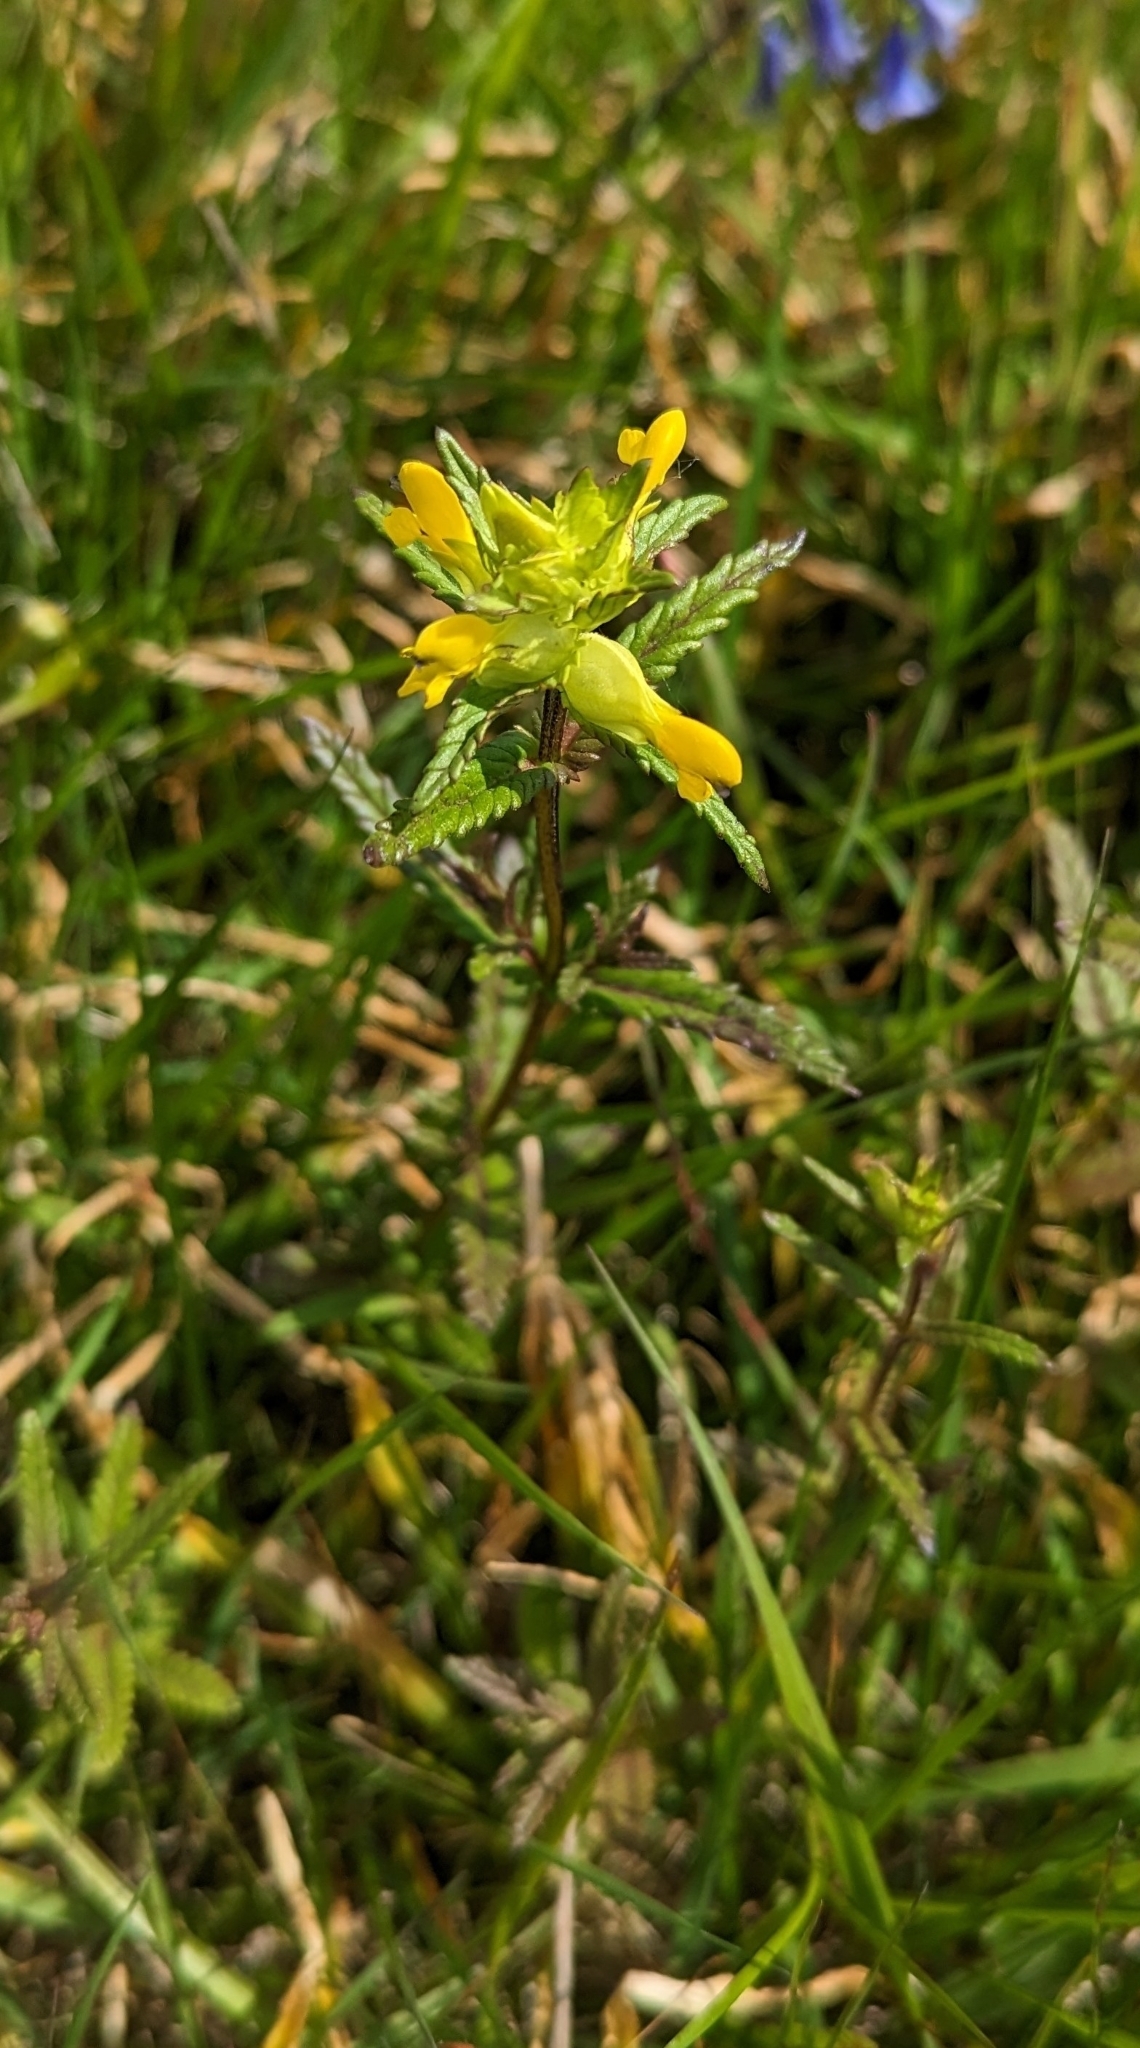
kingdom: Plantae
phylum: Tracheophyta
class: Magnoliopsida
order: Lamiales
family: Orobanchaceae
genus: Rhinanthus
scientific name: Rhinanthus minor
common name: Yellow-rattle
